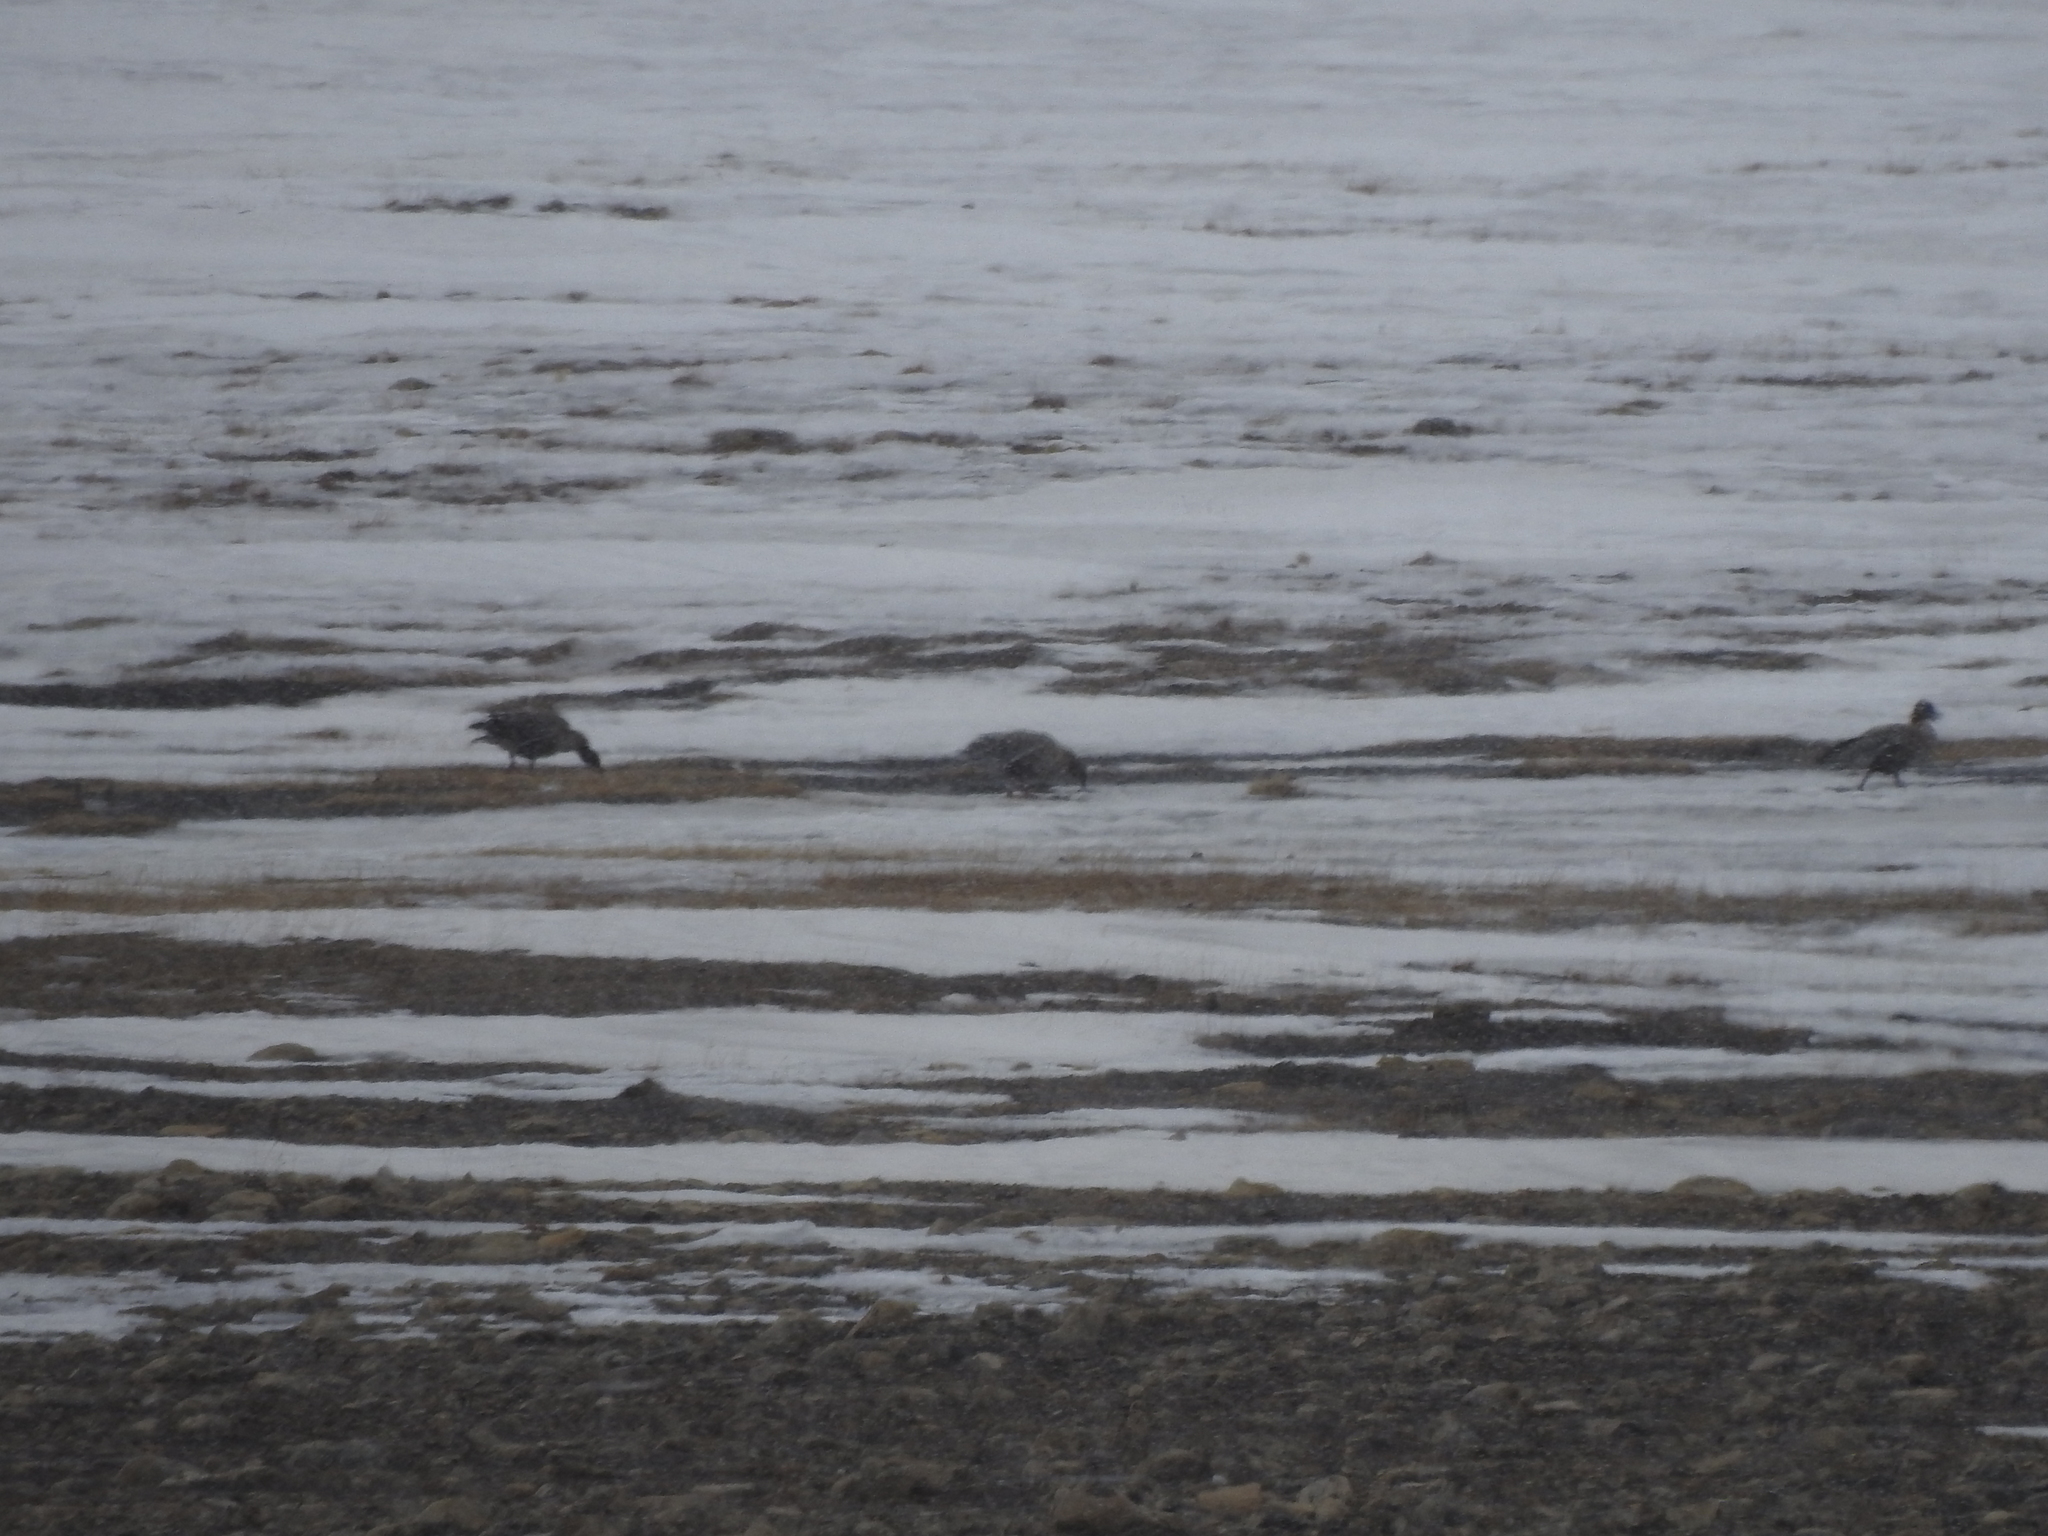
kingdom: Animalia
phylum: Chordata
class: Aves
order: Anseriformes
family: Anatidae
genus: Anser
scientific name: Anser brachyrhynchus
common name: Pink-footed goose
